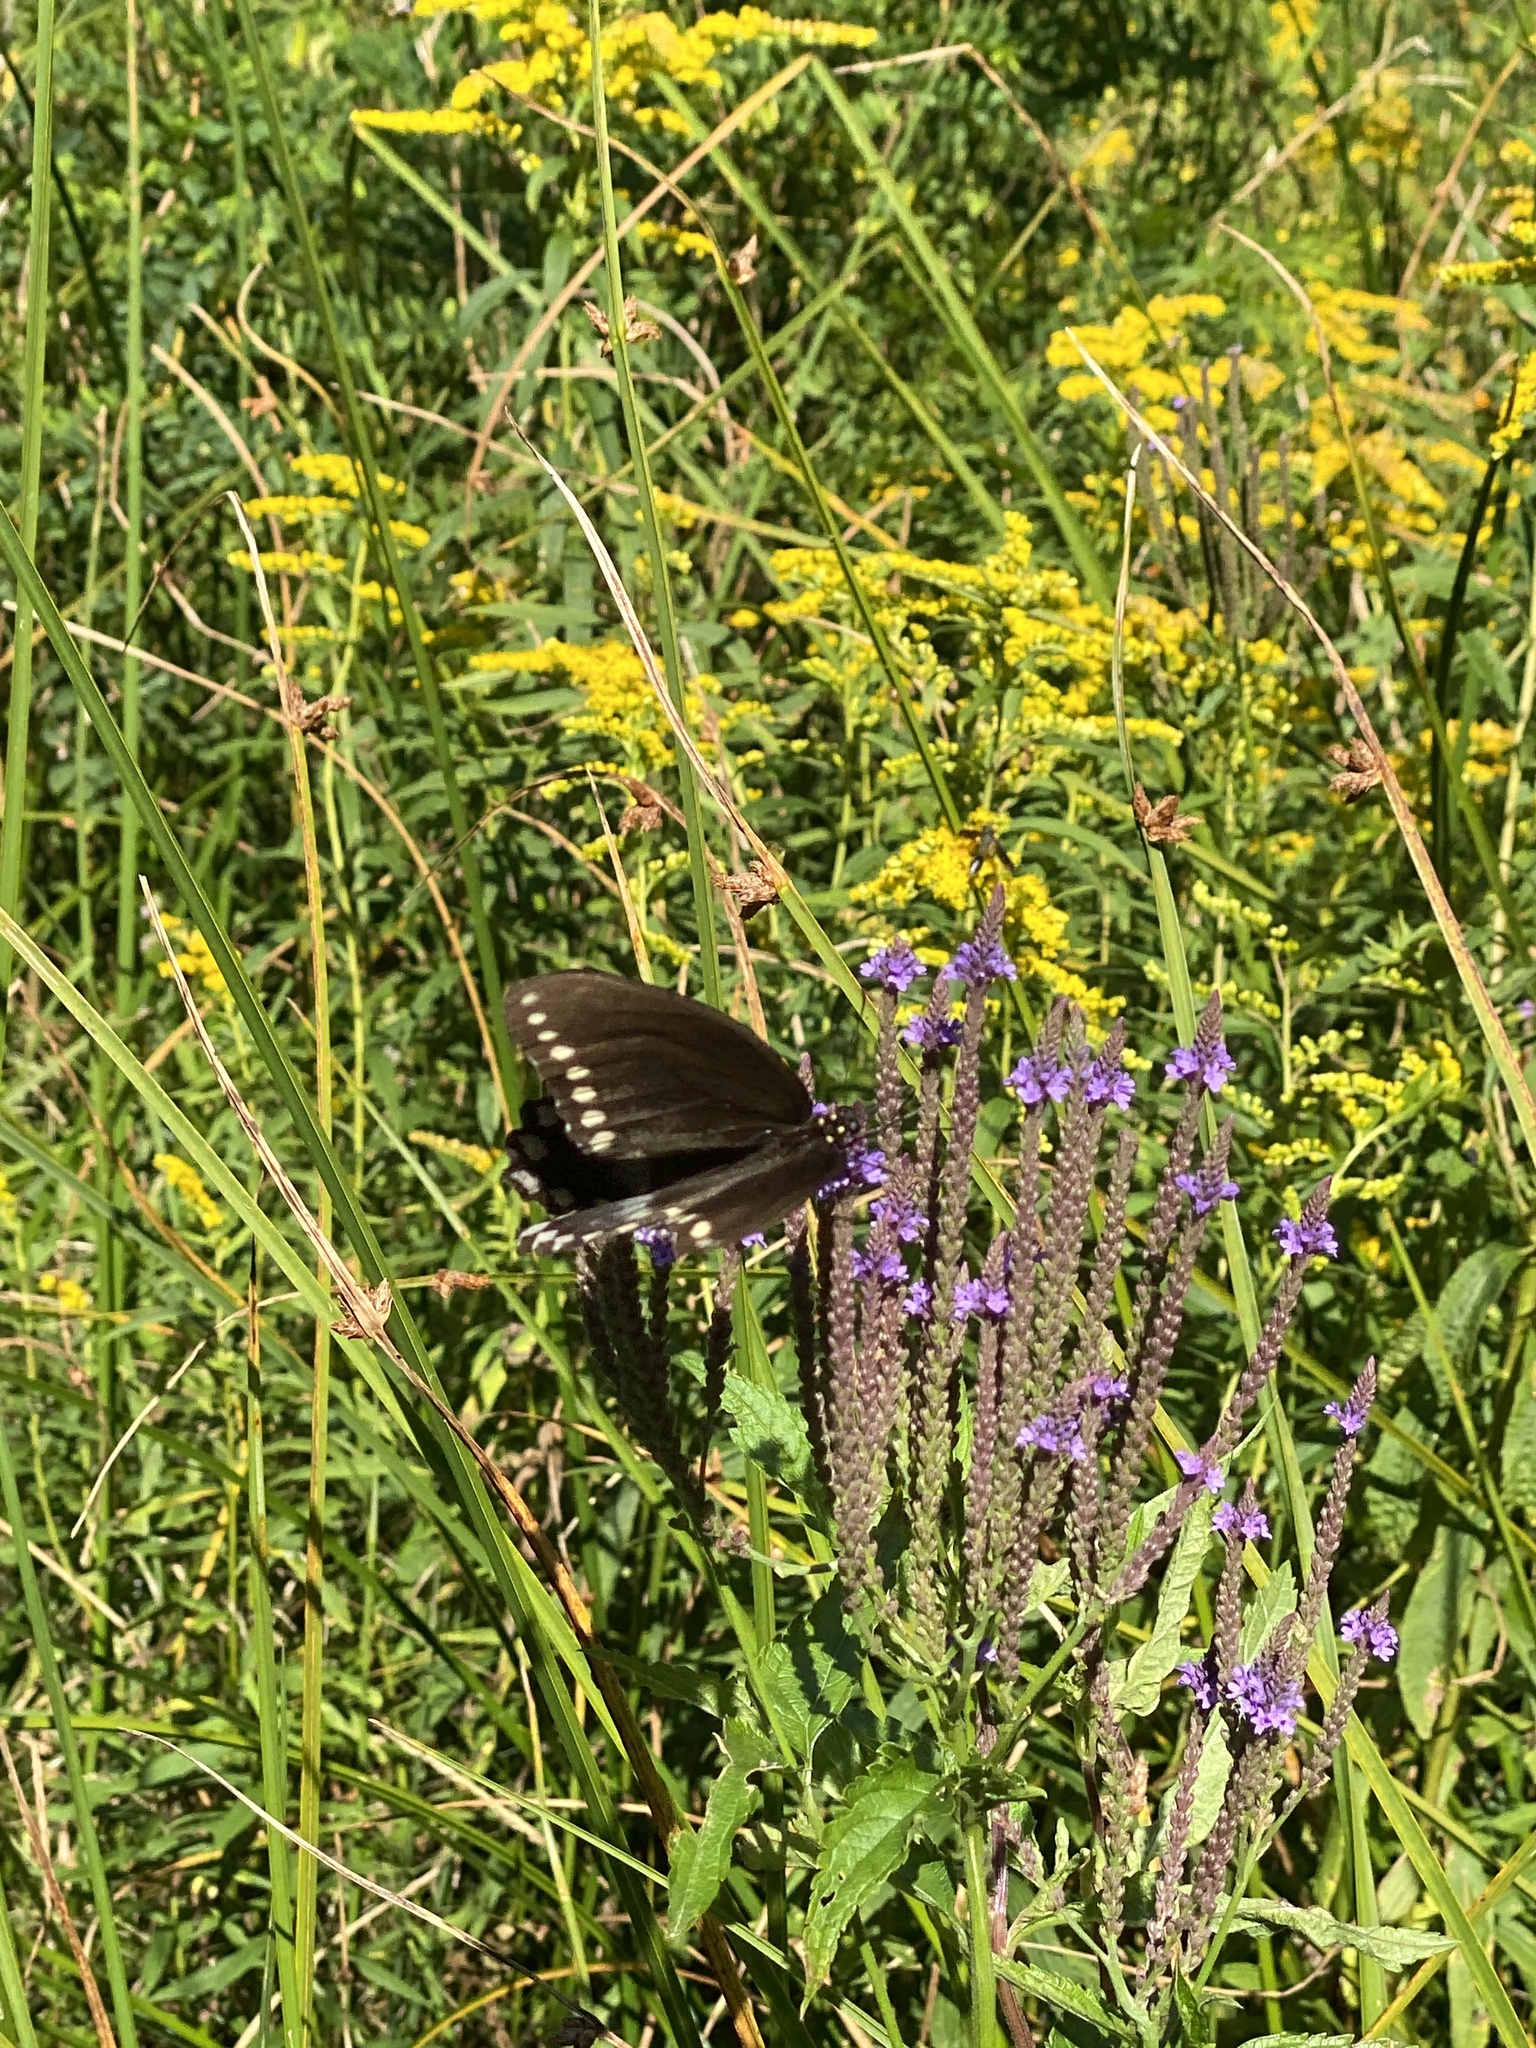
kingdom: Animalia
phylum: Arthropoda
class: Insecta
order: Lepidoptera
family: Papilionidae
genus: Papilio
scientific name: Papilio troilus
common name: Spicebush swallowtail
